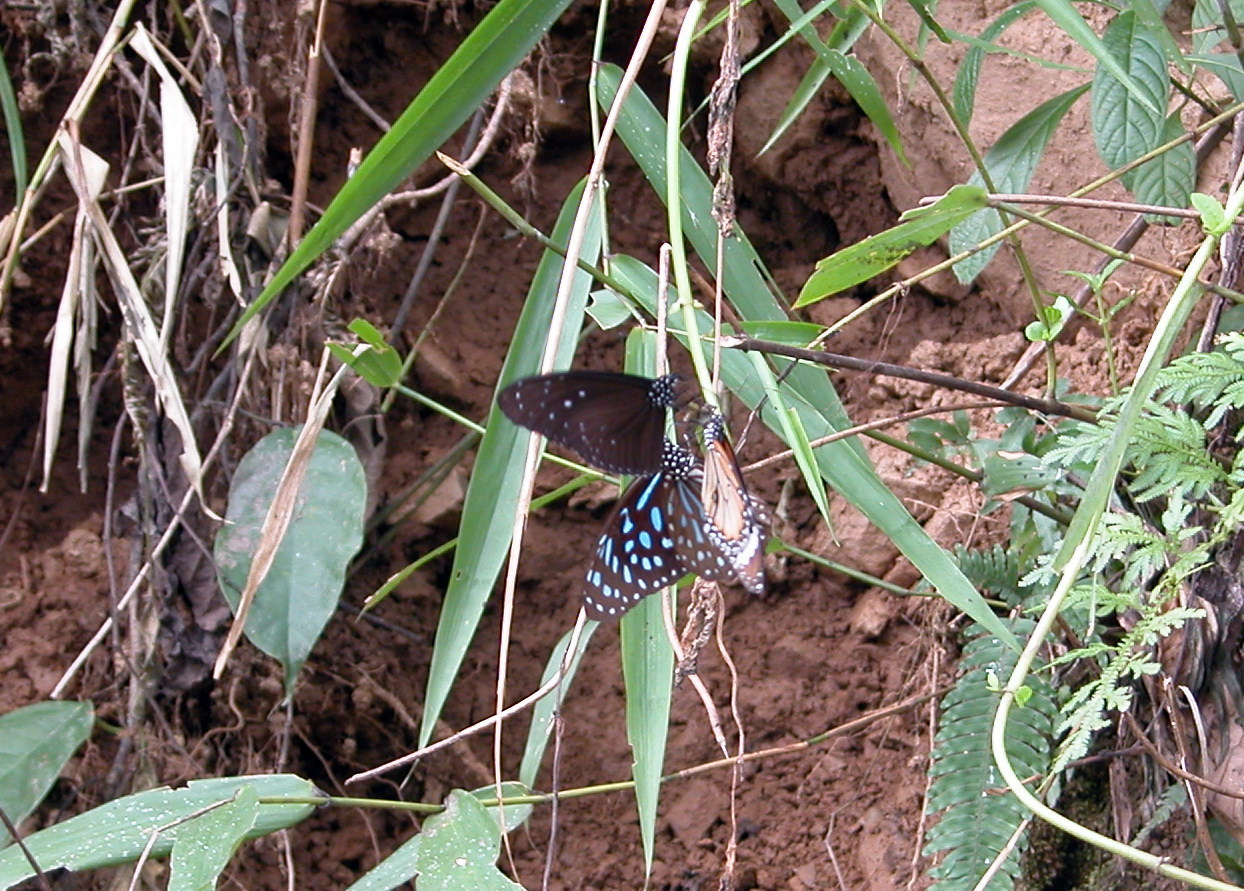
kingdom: Animalia
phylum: Arthropoda
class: Insecta
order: Lepidoptera
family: Nymphalidae
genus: Danaus
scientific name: Danaus genutia
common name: Common tiger butterfly
